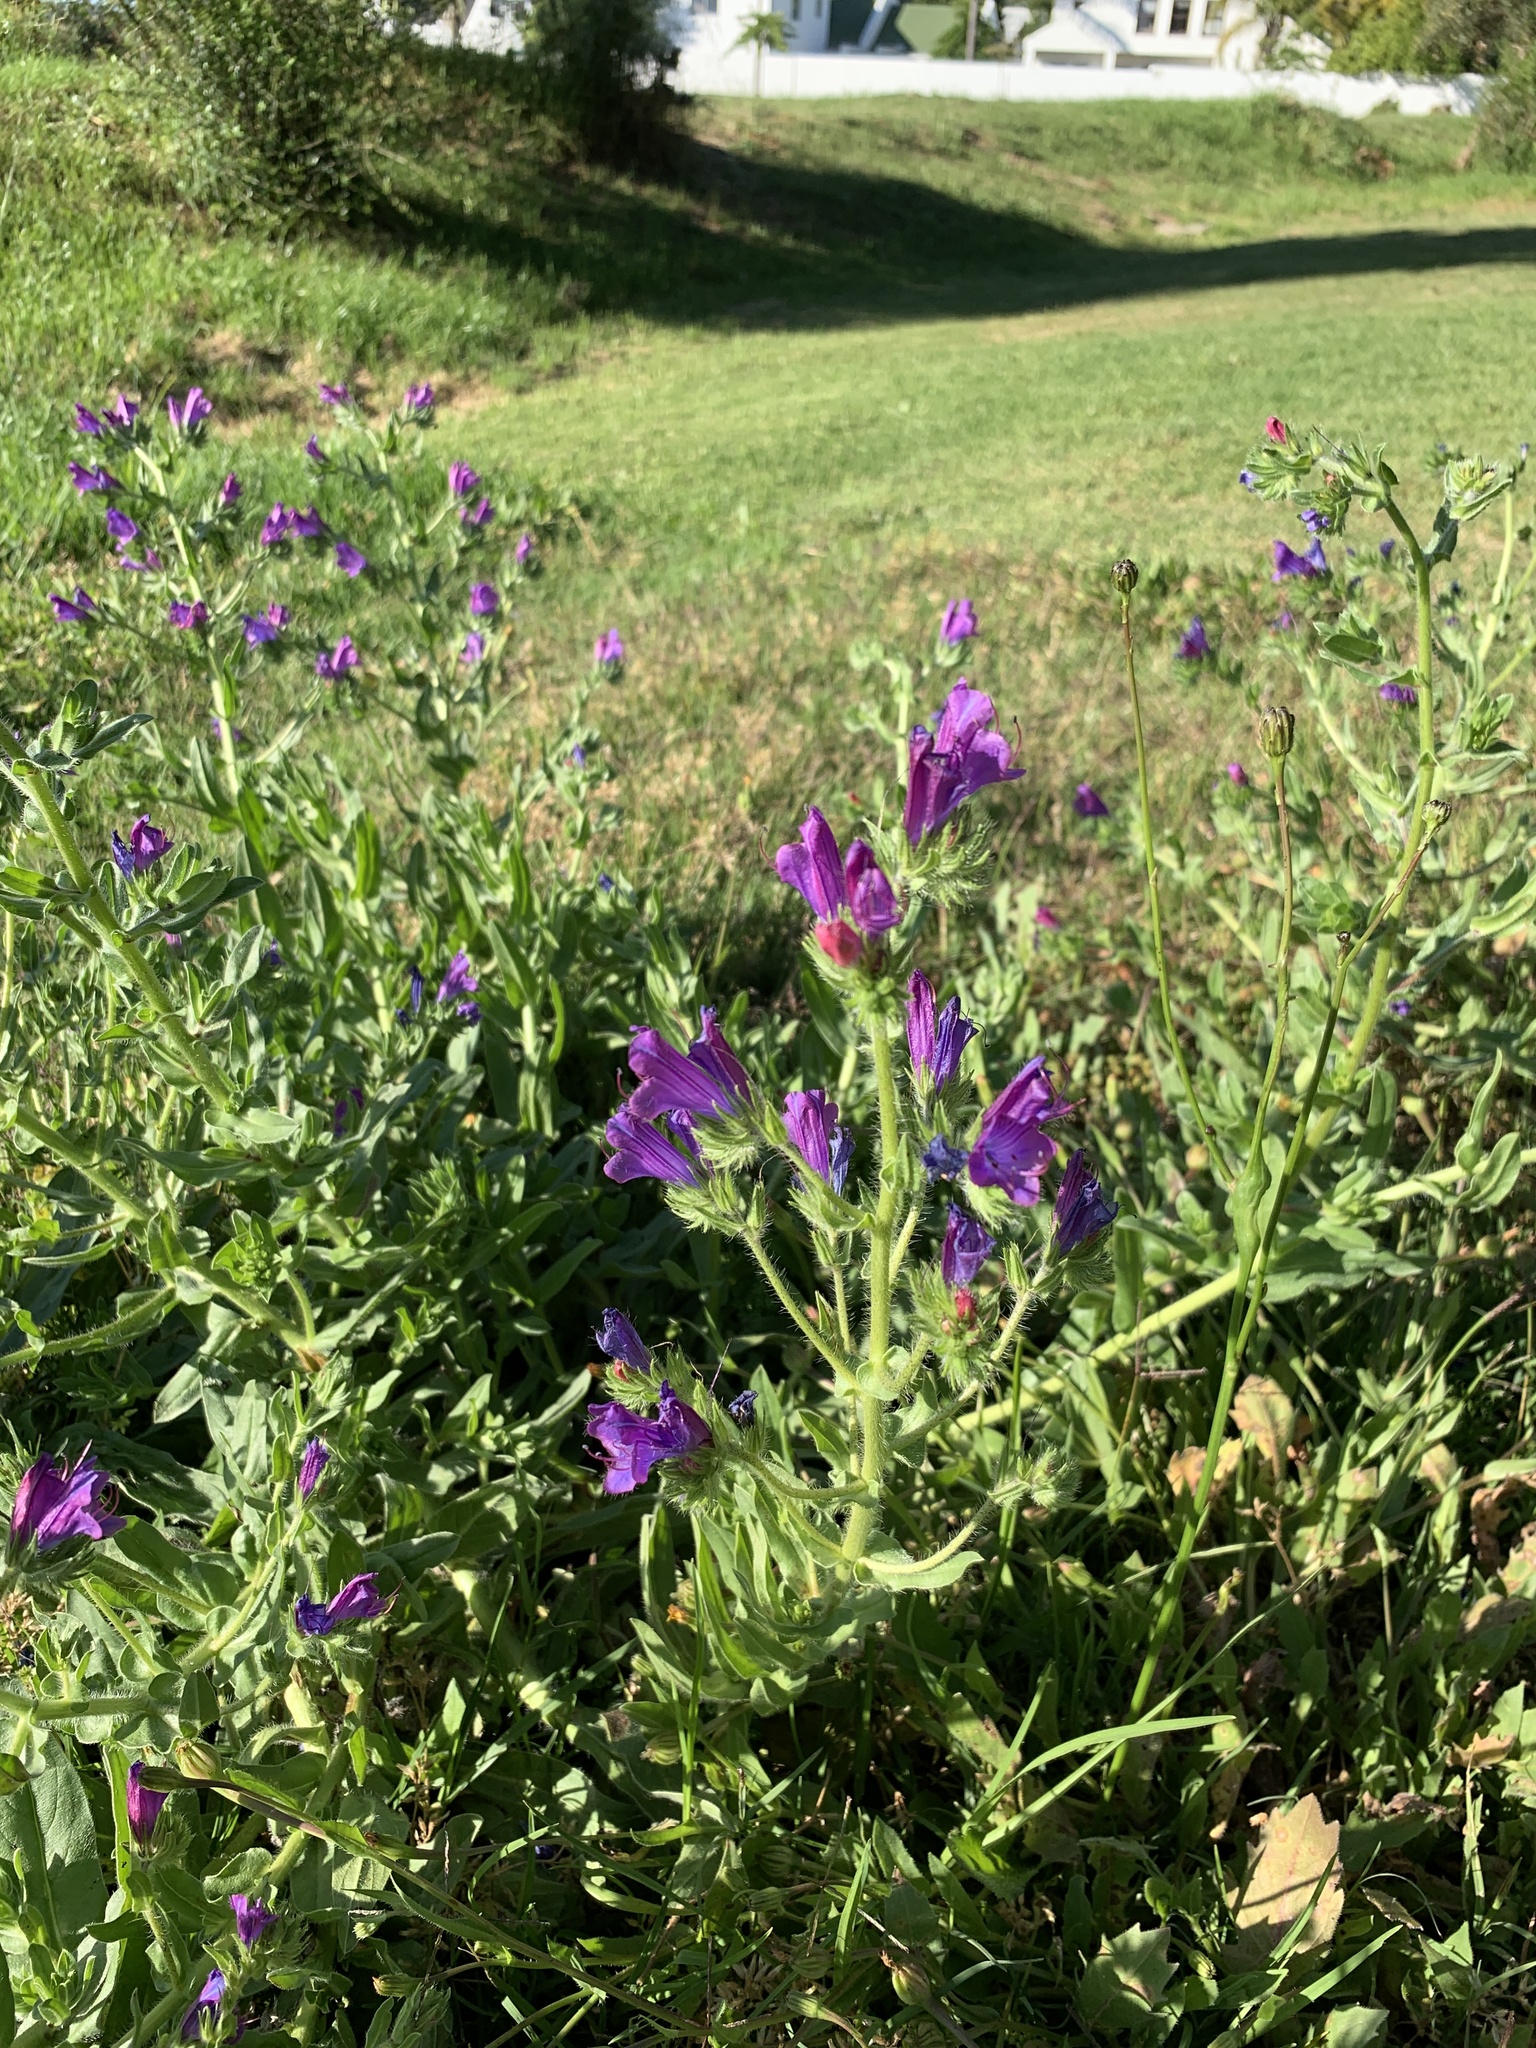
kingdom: Plantae
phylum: Tracheophyta
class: Magnoliopsida
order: Boraginales
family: Boraginaceae
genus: Echium
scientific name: Echium plantagineum
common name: Purple viper's-bugloss
